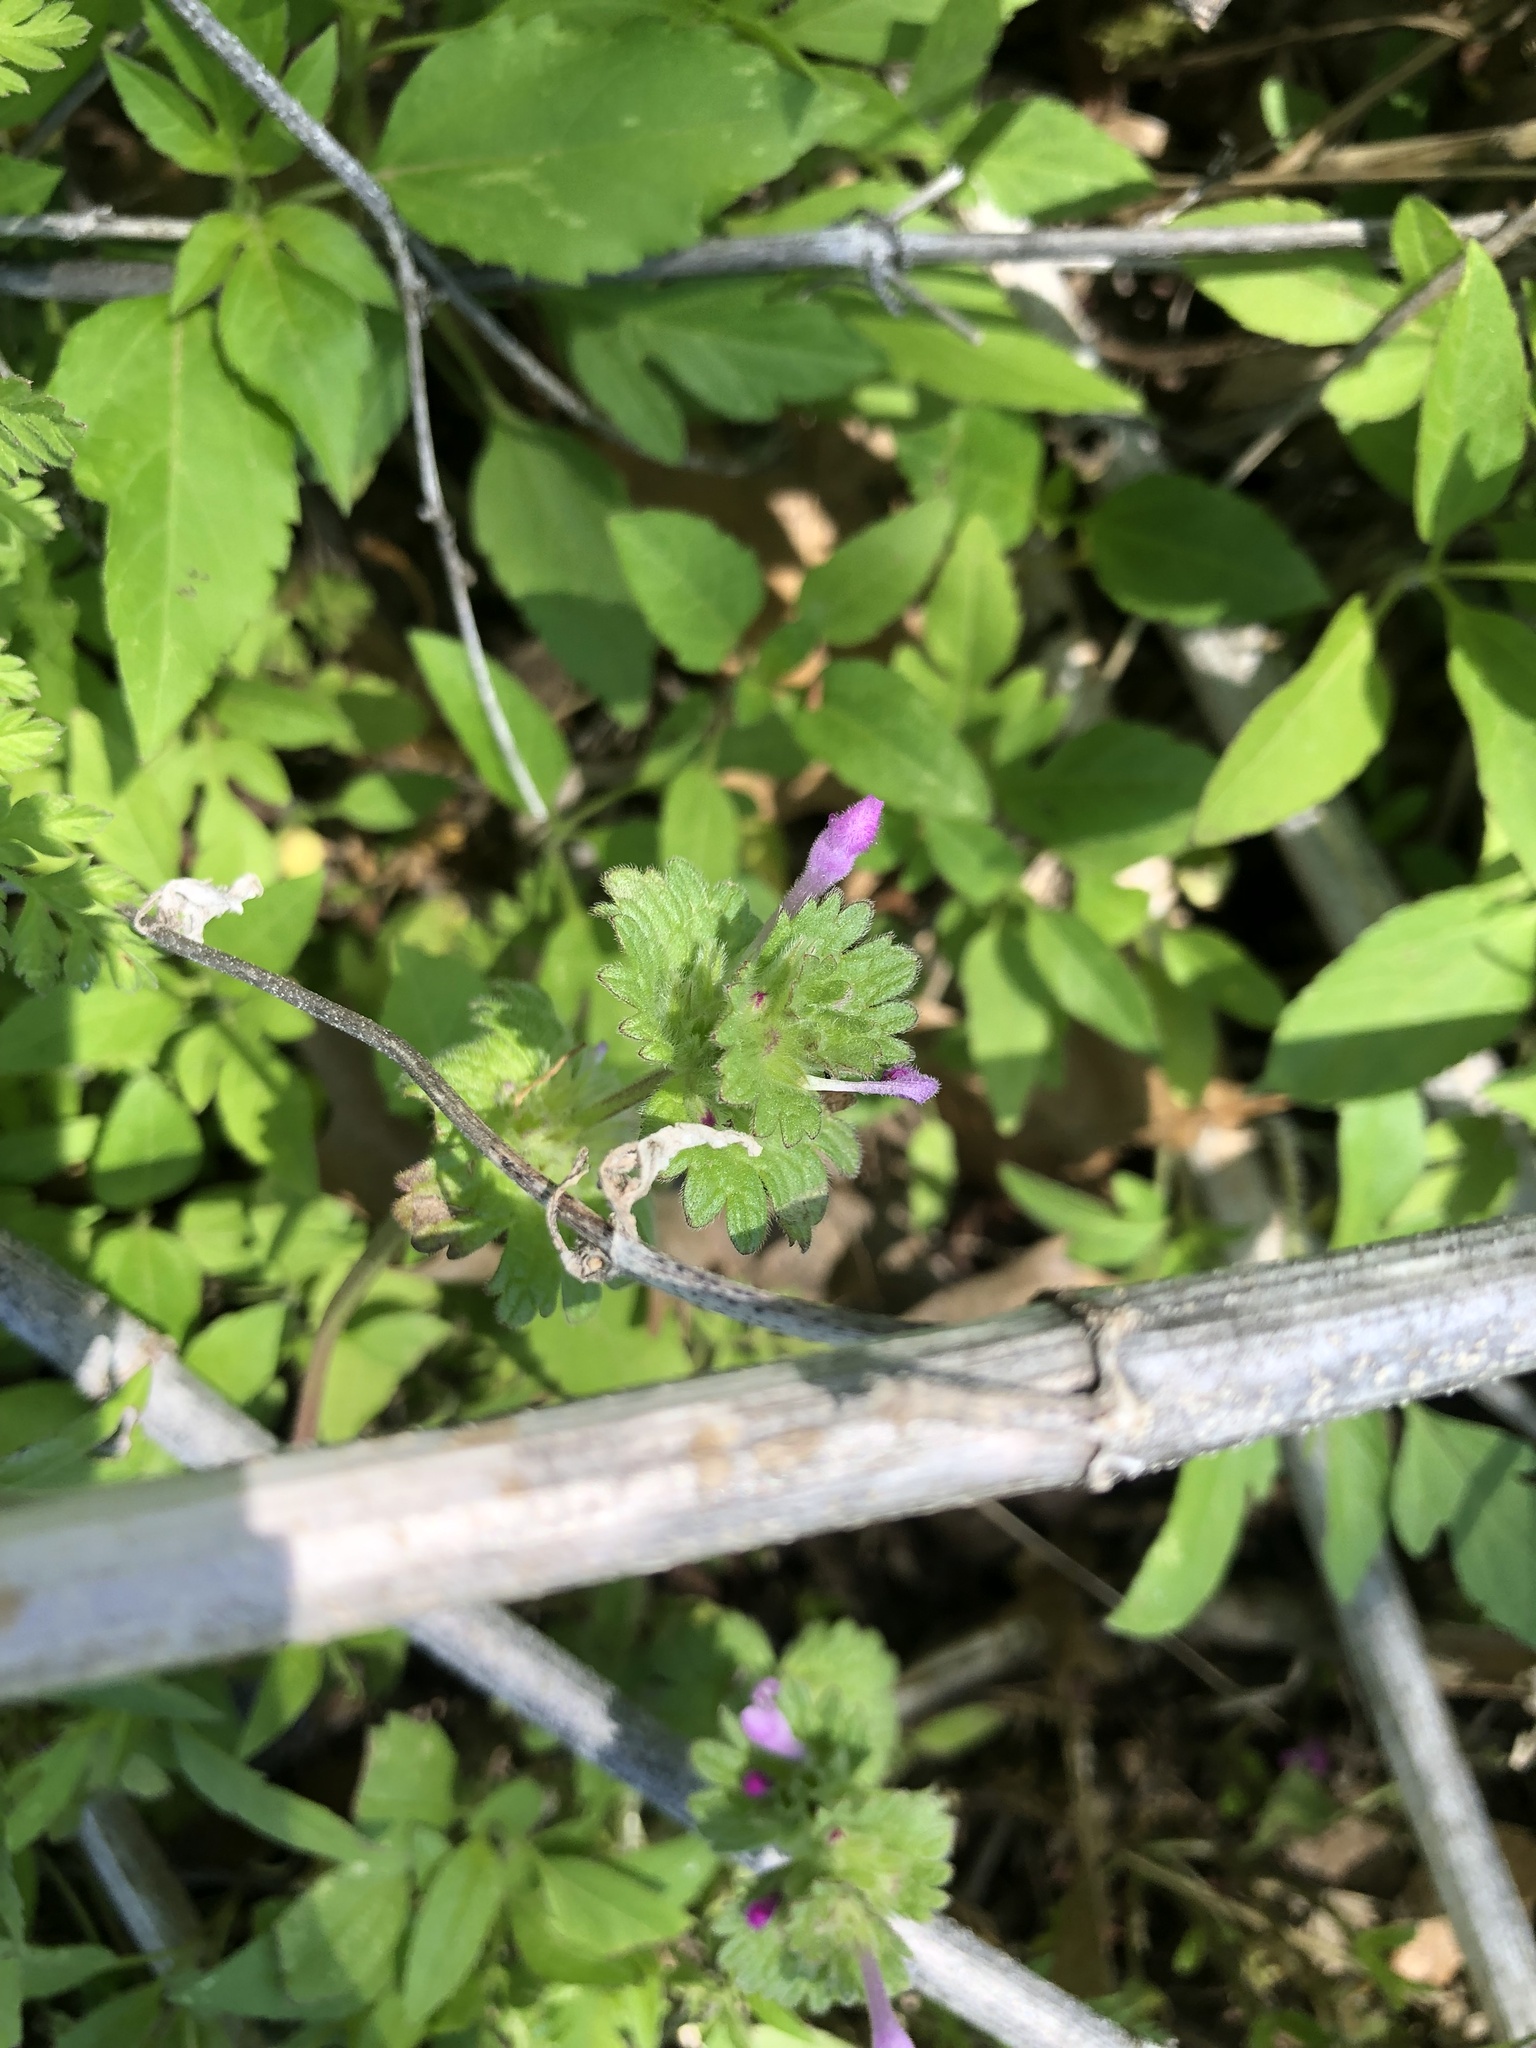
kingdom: Plantae
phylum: Tracheophyta
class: Magnoliopsida
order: Lamiales
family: Lamiaceae
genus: Lamium
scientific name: Lamium amplexicaule
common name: Henbit dead-nettle
